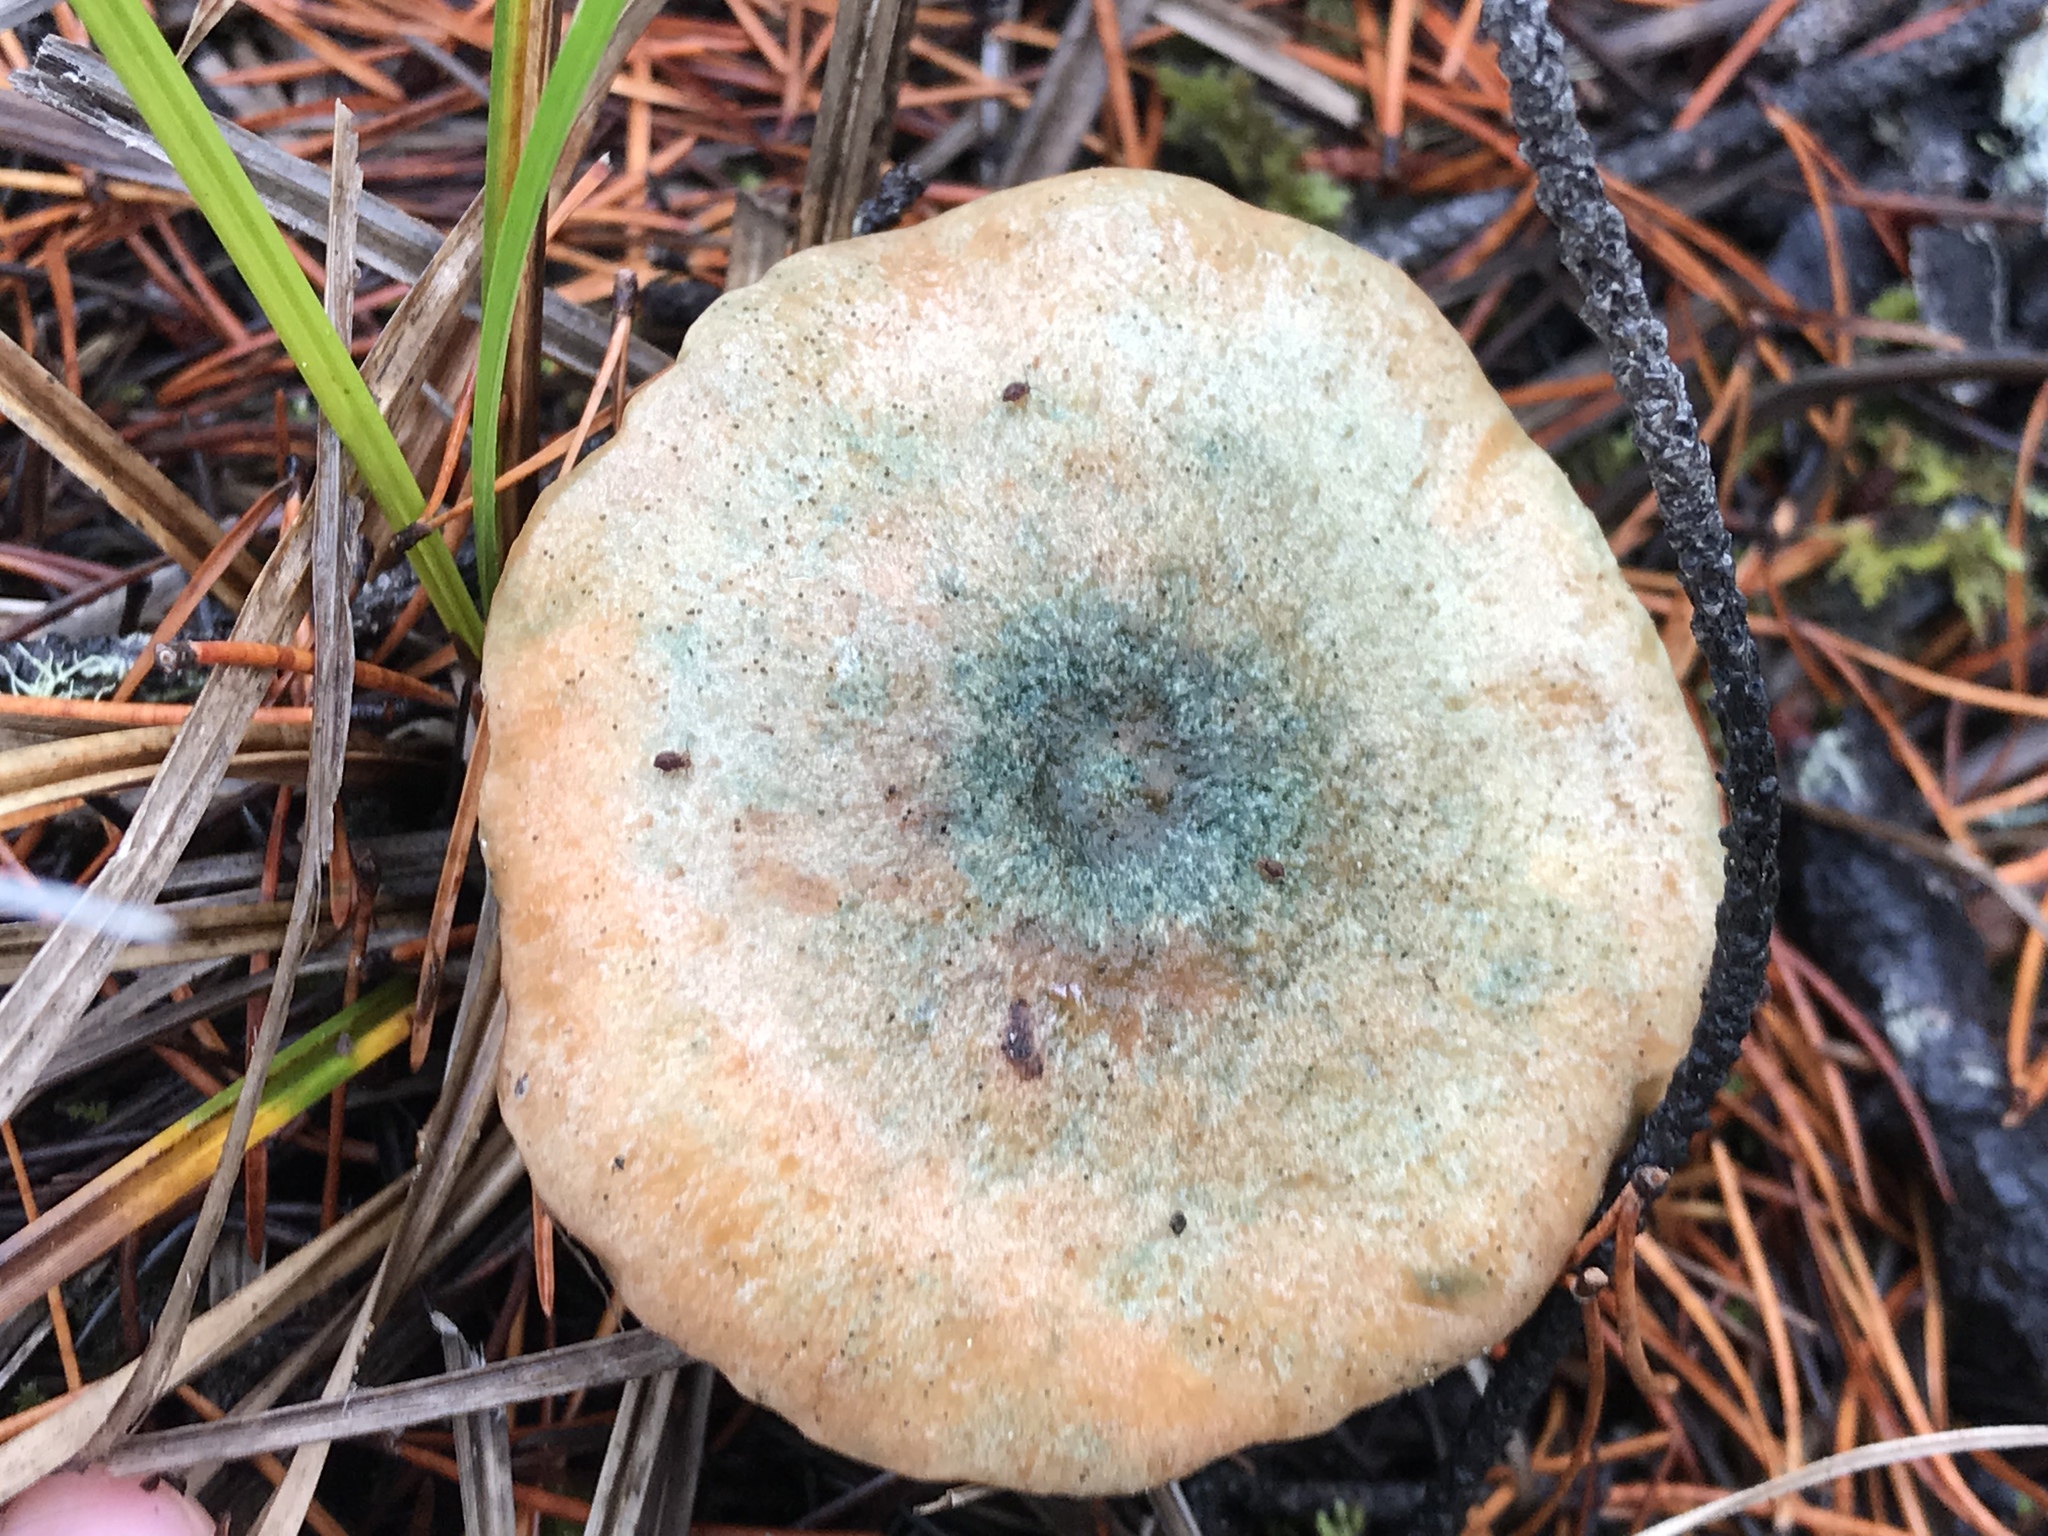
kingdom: Fungi
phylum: Basidiomycota
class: Agaricomycetes
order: Russulales
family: Russulaceae
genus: Lactarius
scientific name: Lactarius deliciosus
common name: Saffron milk-cap
